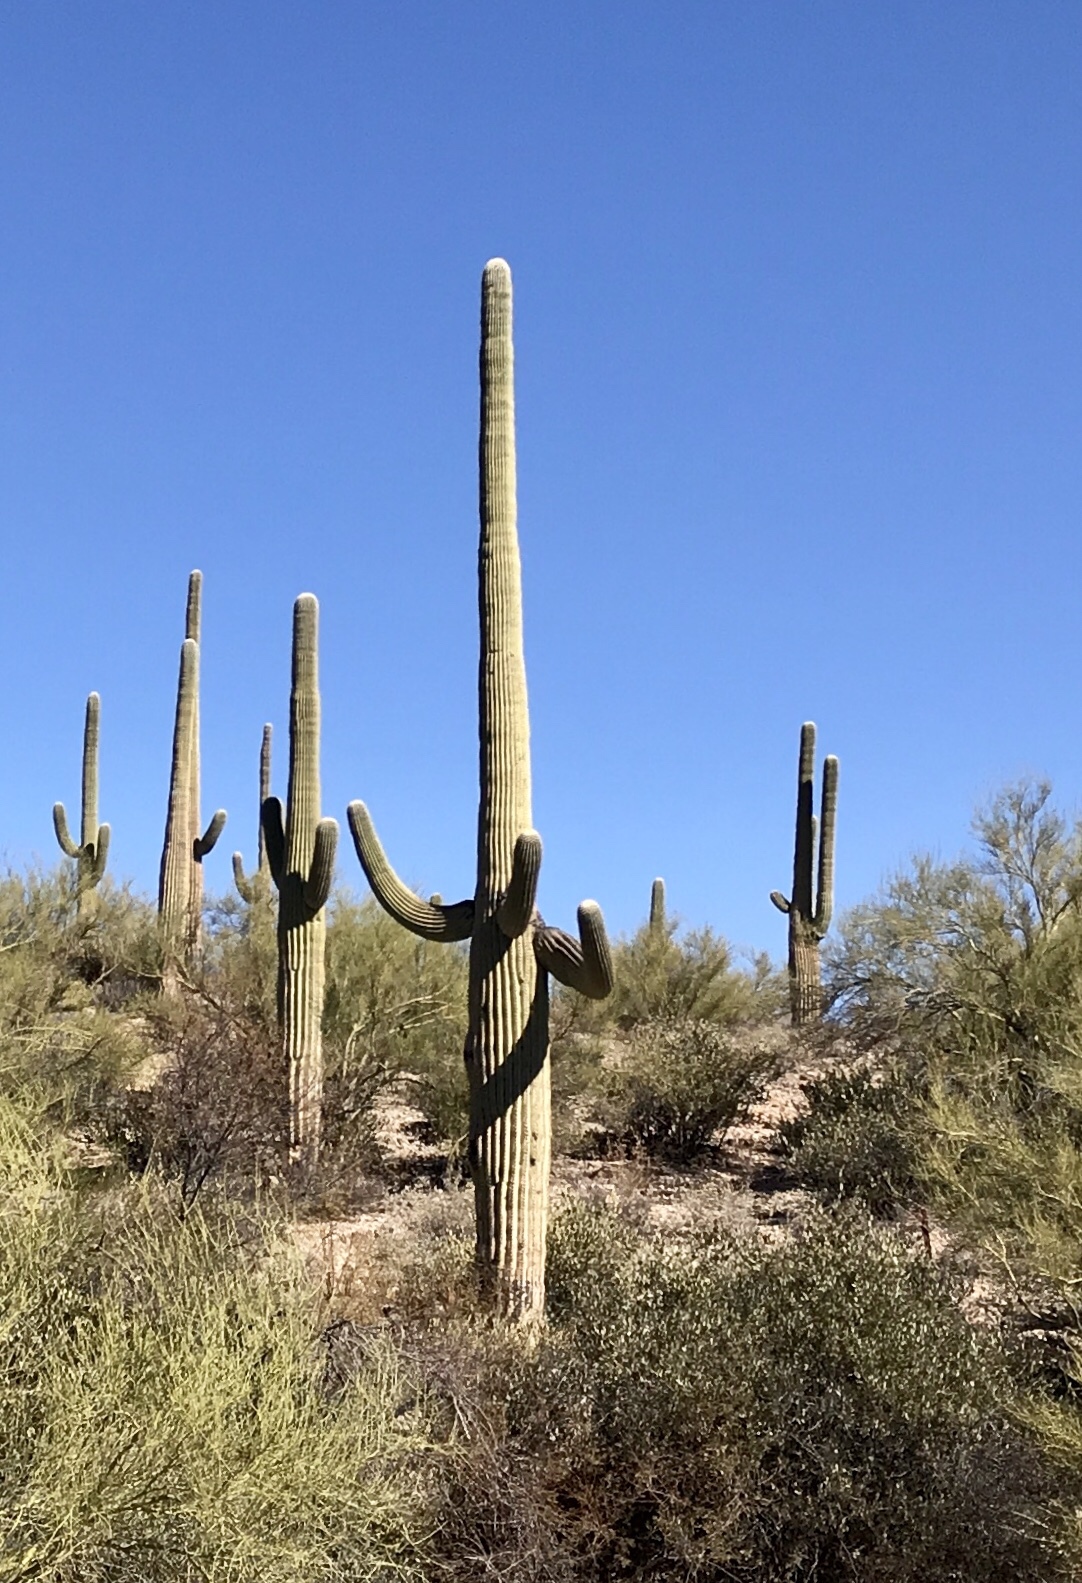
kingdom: Plantae
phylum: Tracheophyta
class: Magnoliopsida
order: Caryophyllales
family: Cactaceae
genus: Carnegiea
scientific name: Carnegiea gigantea
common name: Saguaro
